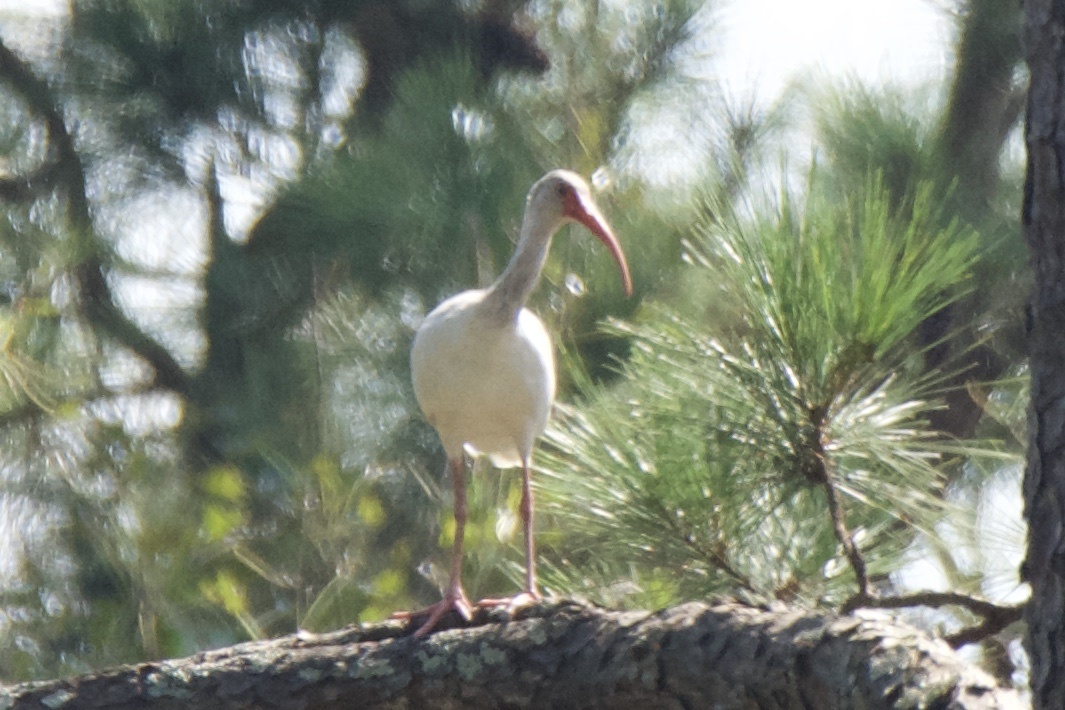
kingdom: Animalia
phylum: Chordata
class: Aves
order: Pelecaniformes
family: Threskiornithidae
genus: Eudocimus
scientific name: Eudocimus albus
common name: White ibis
